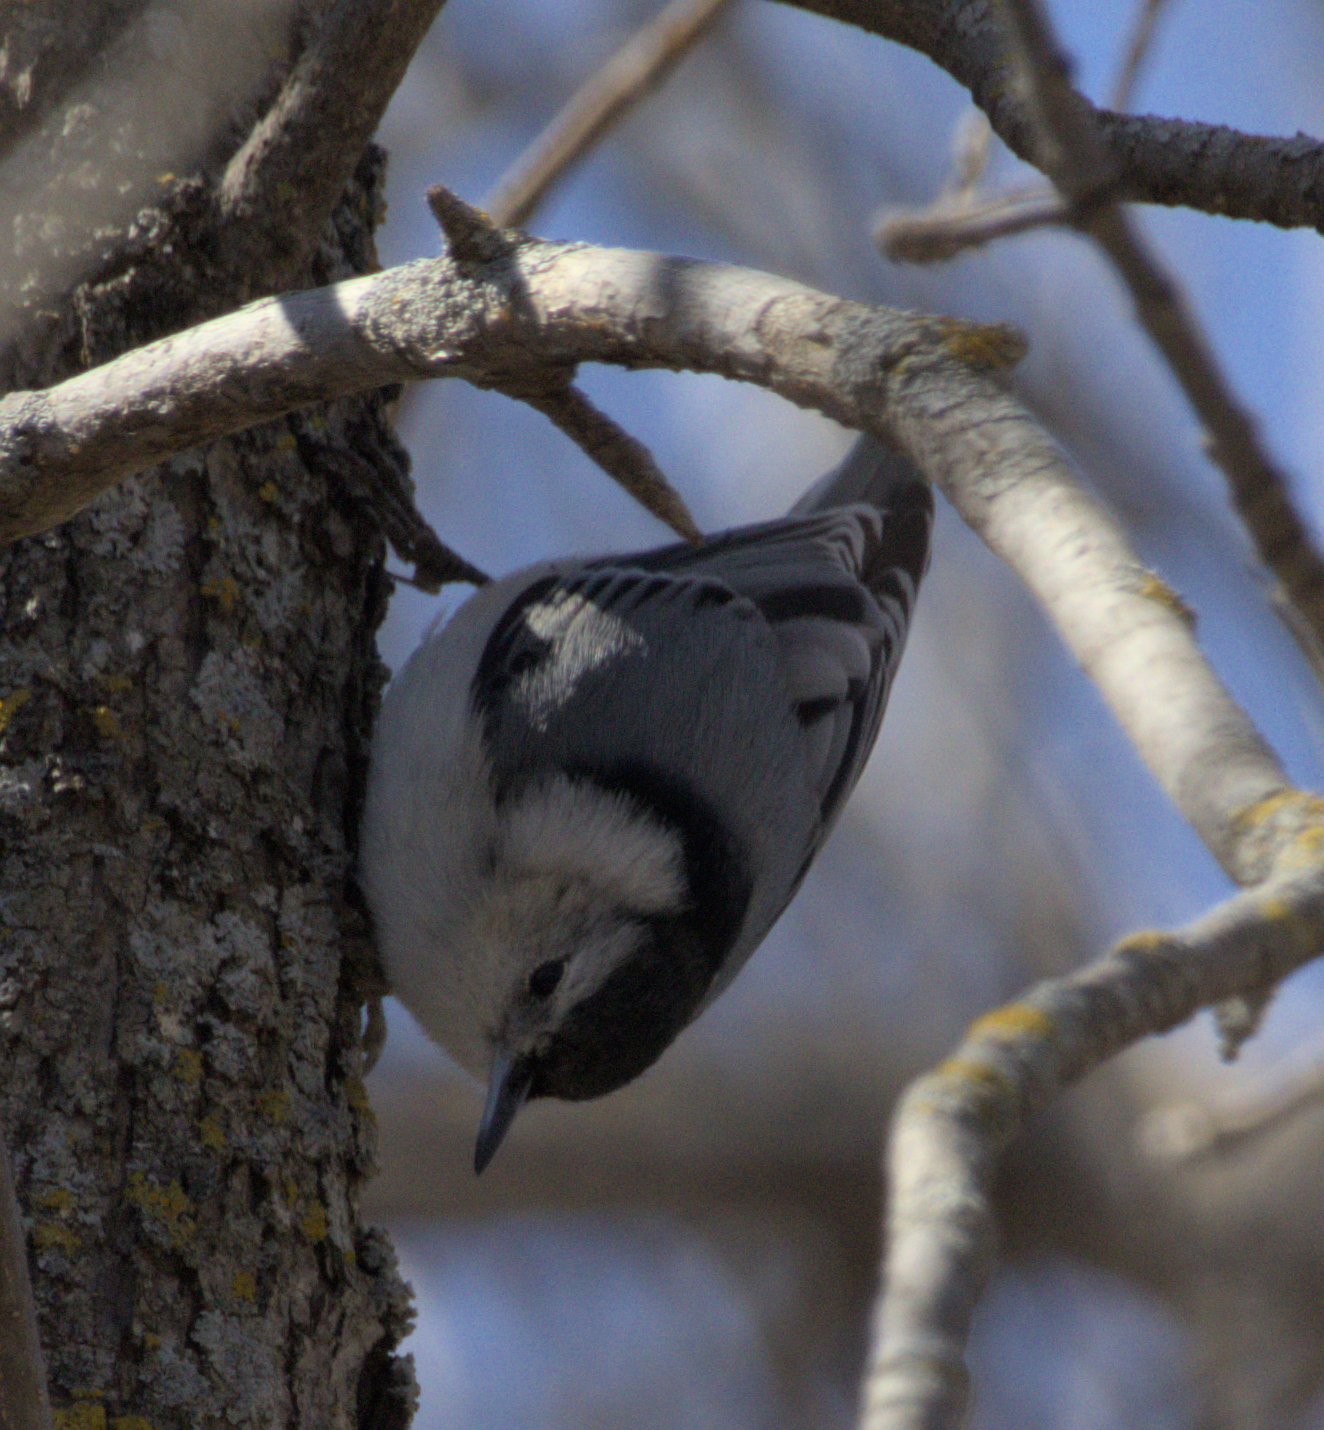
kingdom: Animalia
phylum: Chordata
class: Aves
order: Passeriformes
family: Sittidae
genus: Sitta
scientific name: Sitta carolinensis
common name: White-breasted nuthatch
